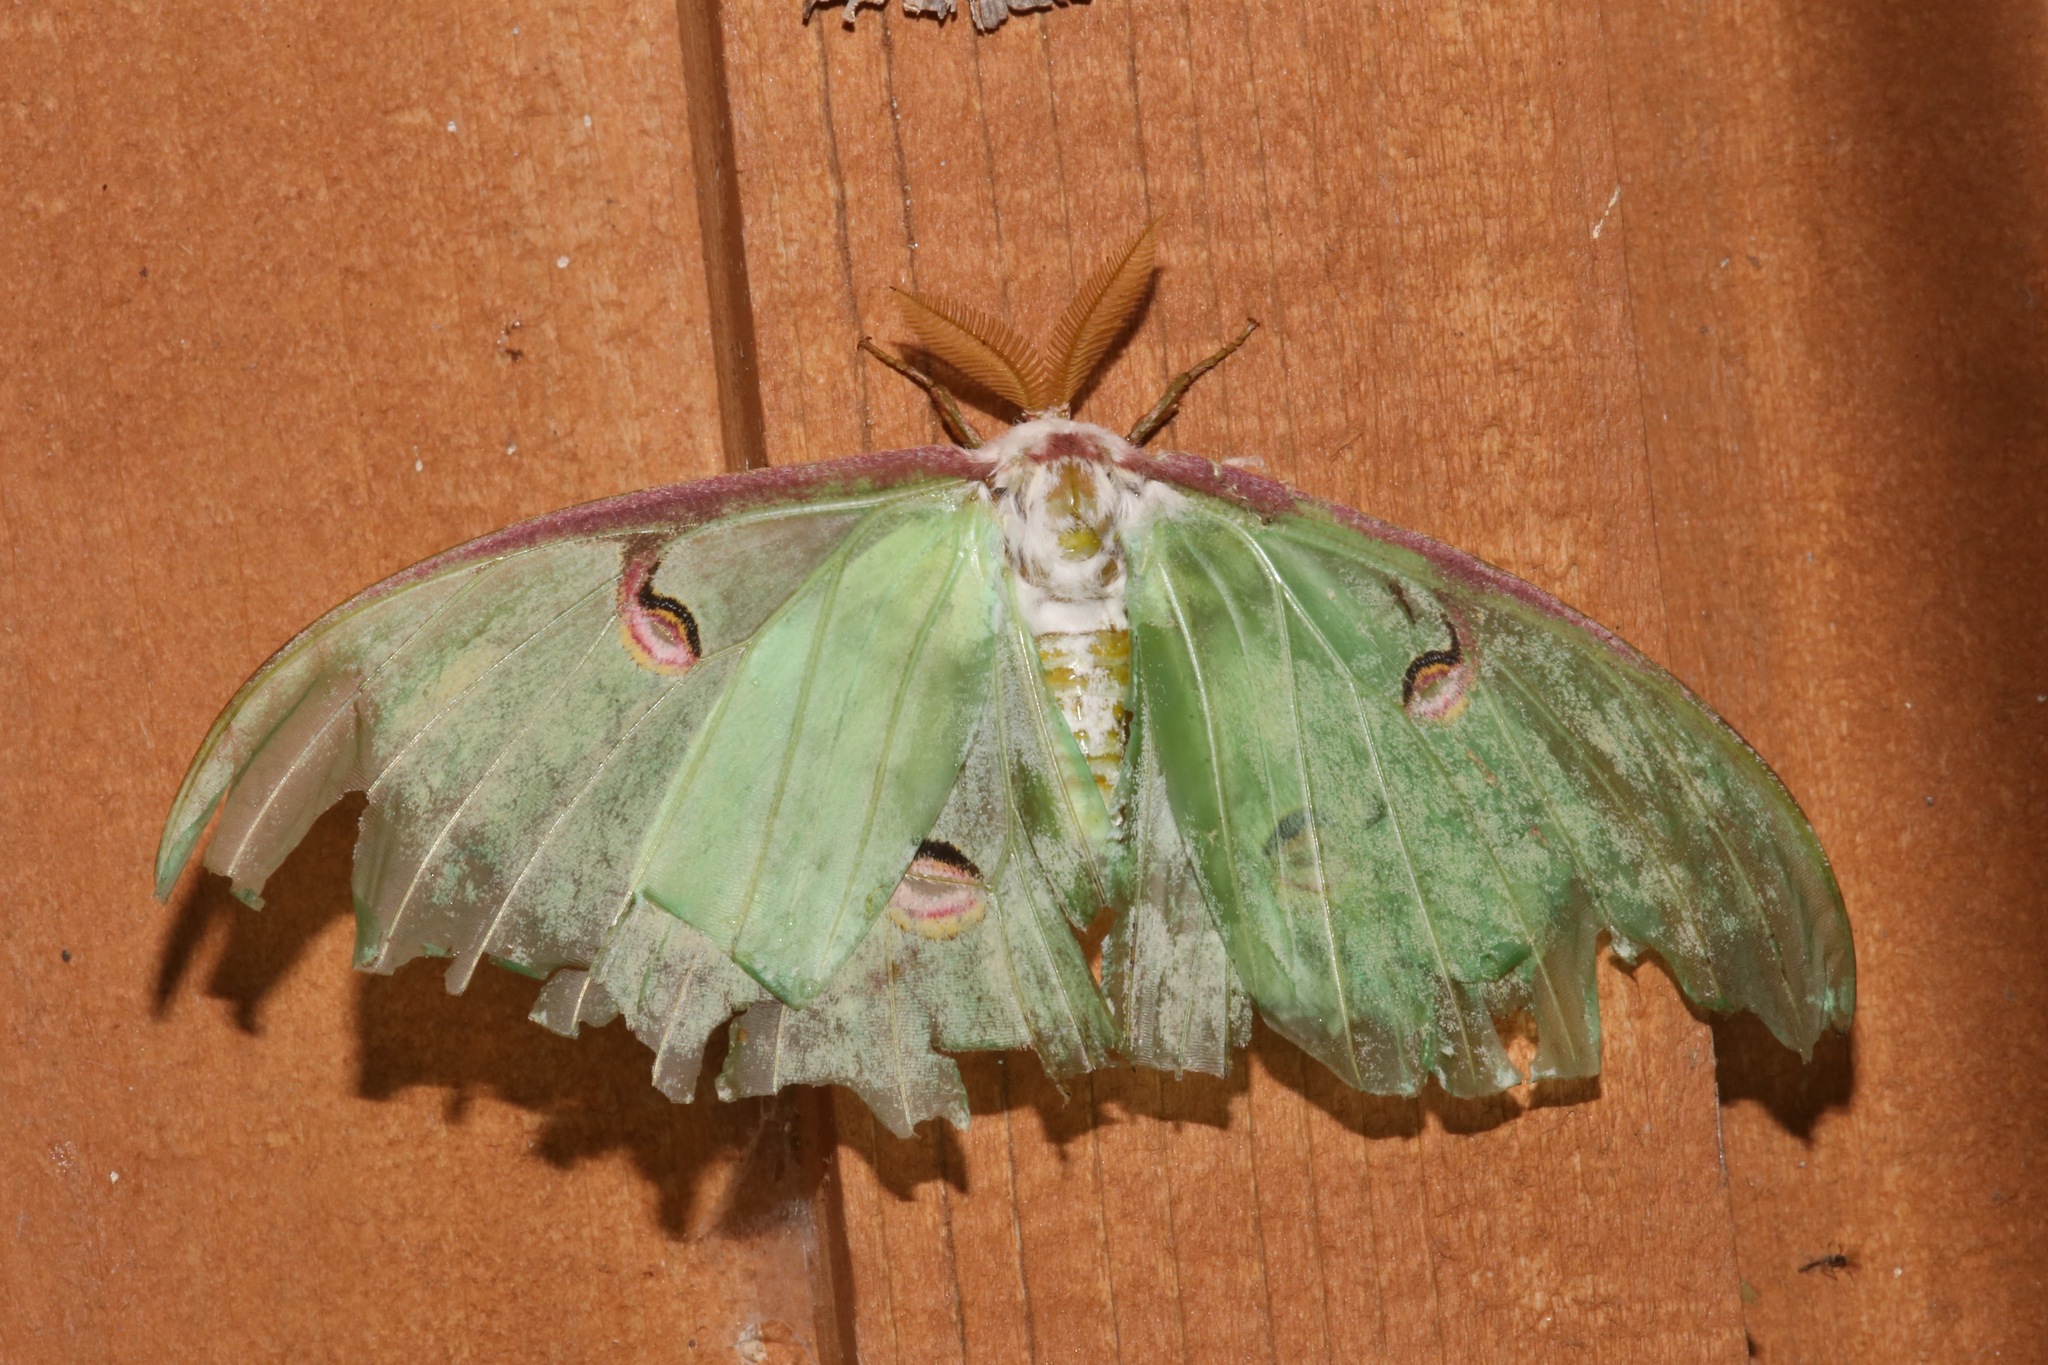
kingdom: Animalia
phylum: Arthropoda
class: Insecta
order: Lepidoptera
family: Saturniidae
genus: Actias
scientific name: Actias luna
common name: Luna moth
